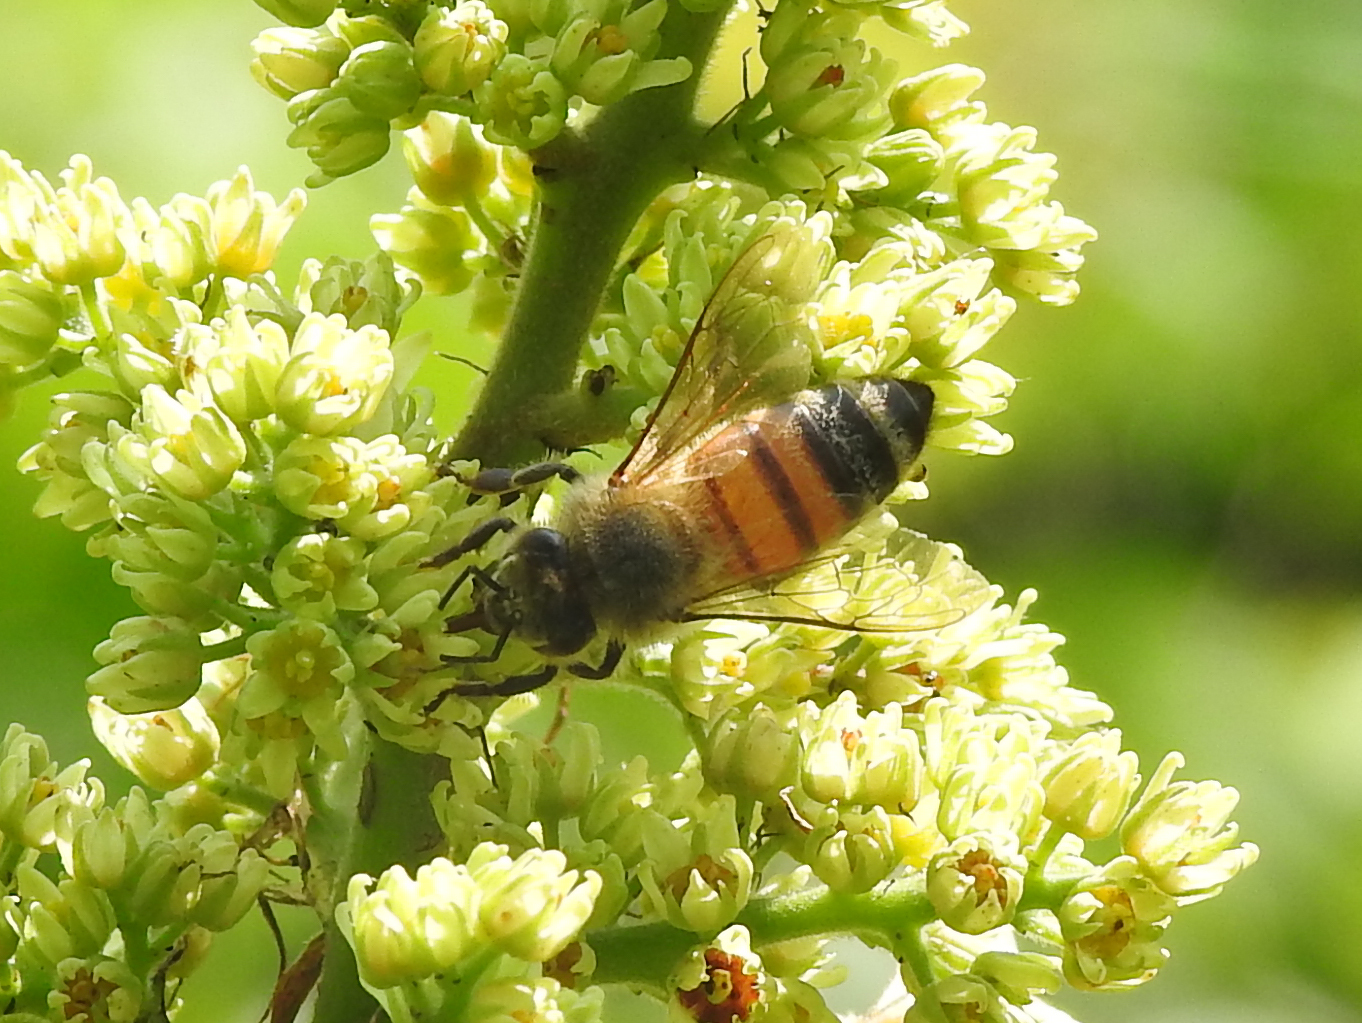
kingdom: Animalia
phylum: Arthropoda
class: Insecta
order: Hymenoptera
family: Apidae
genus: Apis
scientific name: Apis mellifera
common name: Honey bee
